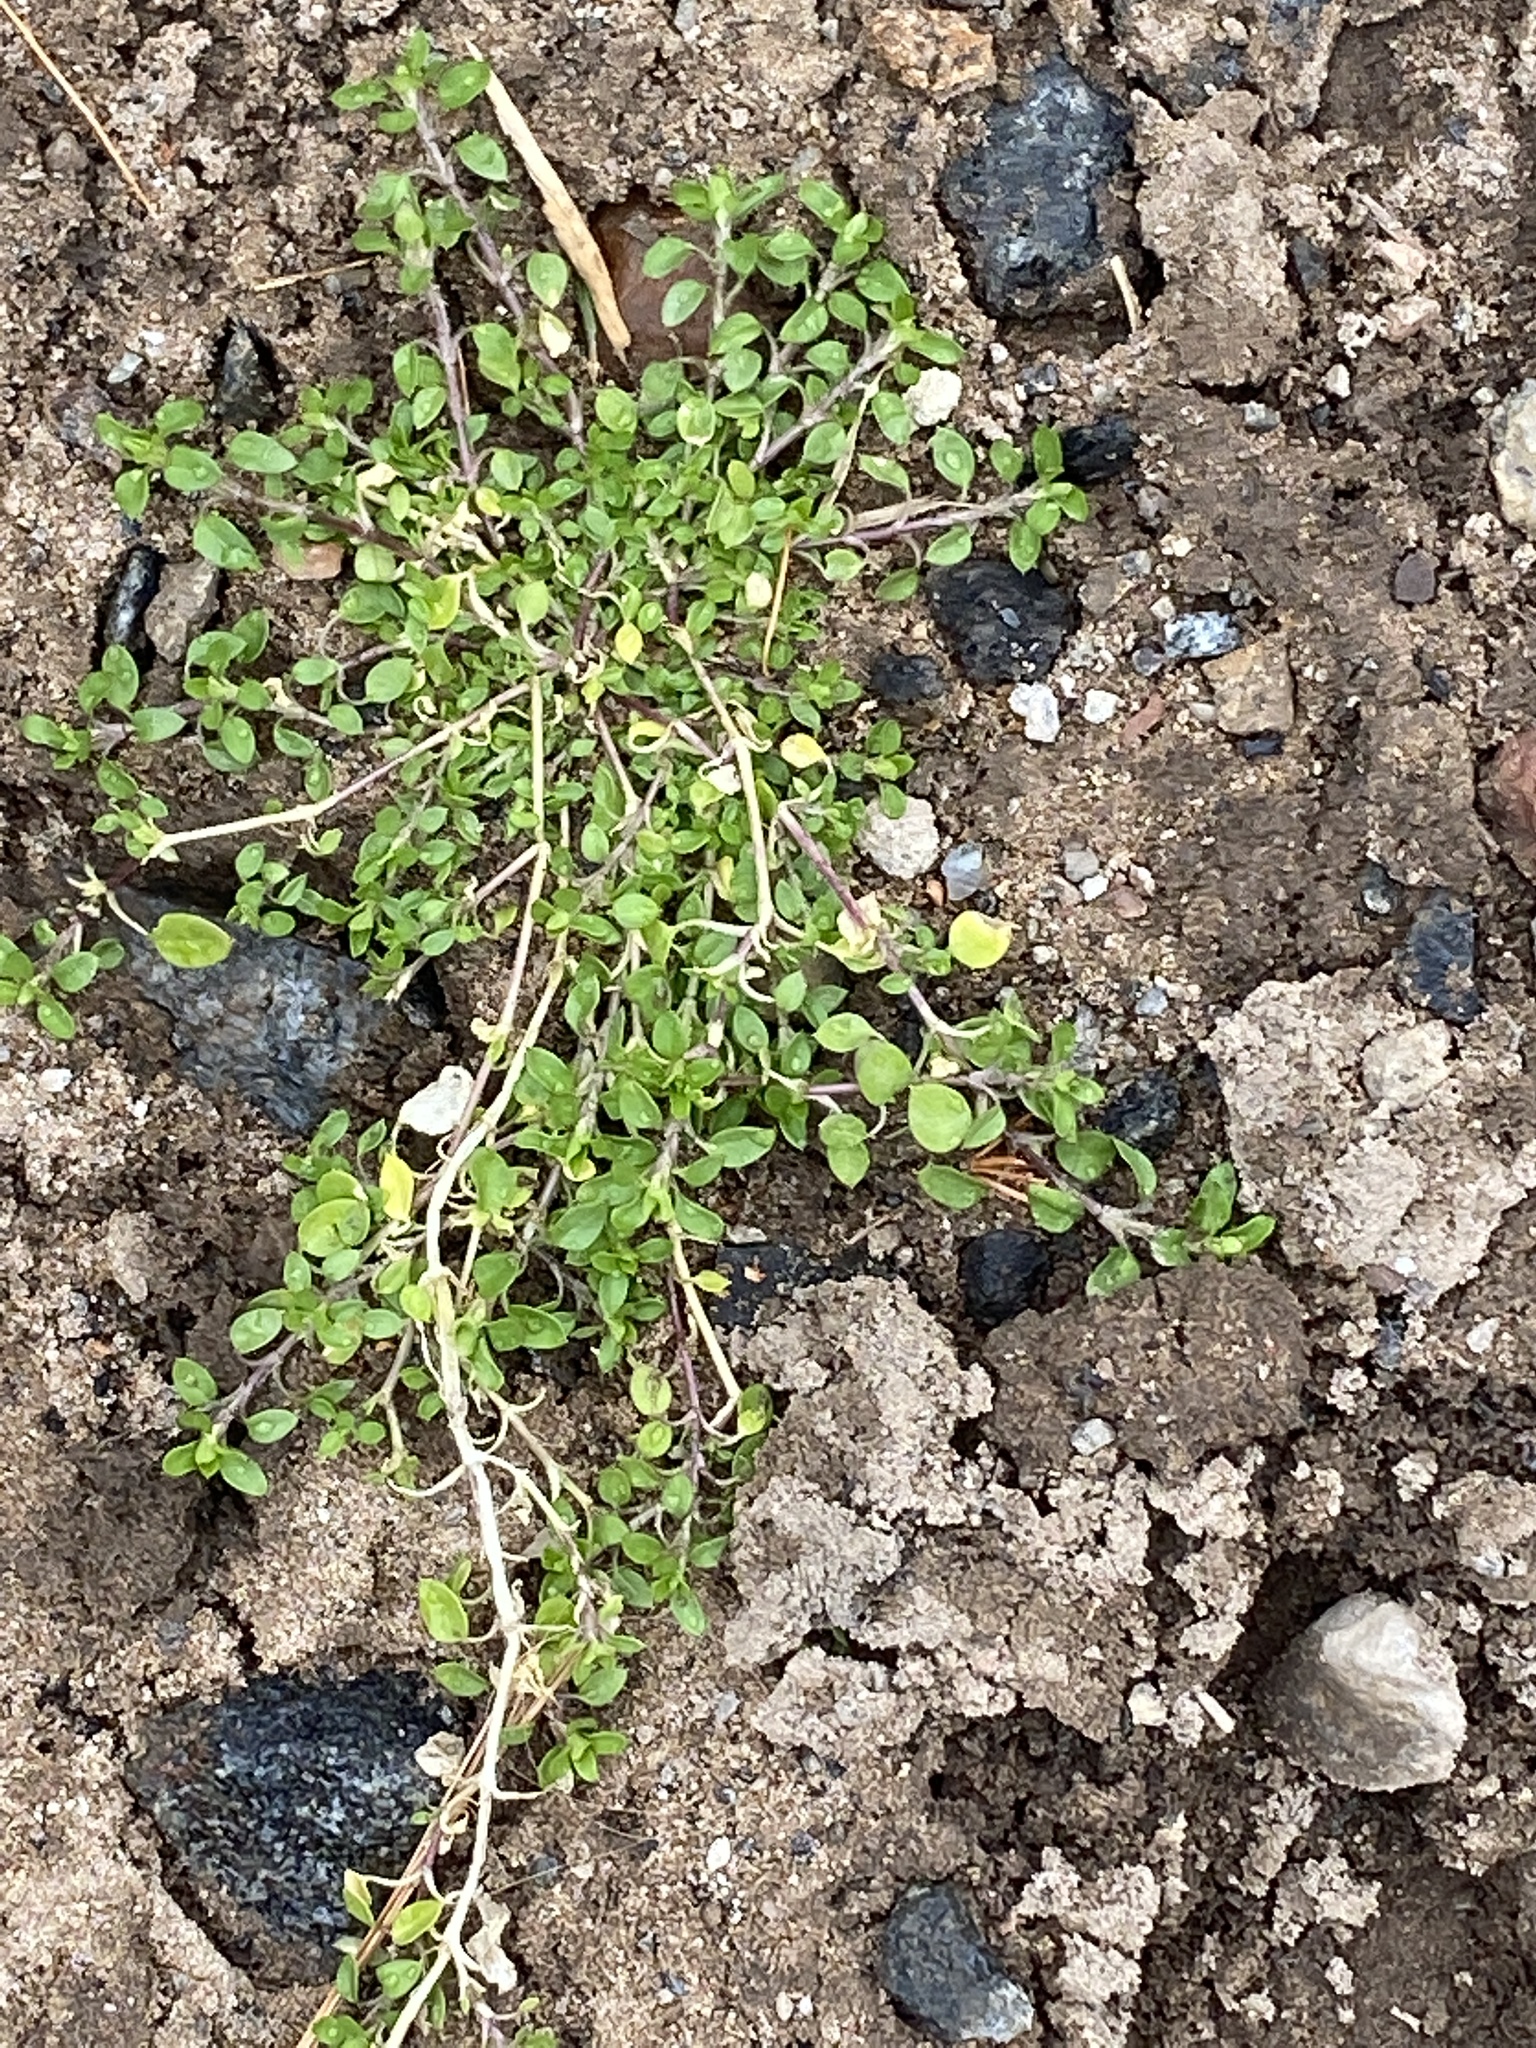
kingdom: Plantae
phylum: Tracheophyta
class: Magnoliopsida
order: Caryophyllales
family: Caryophyllaceae
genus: Stellaria
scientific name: Stellaria media
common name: Common chickweed
